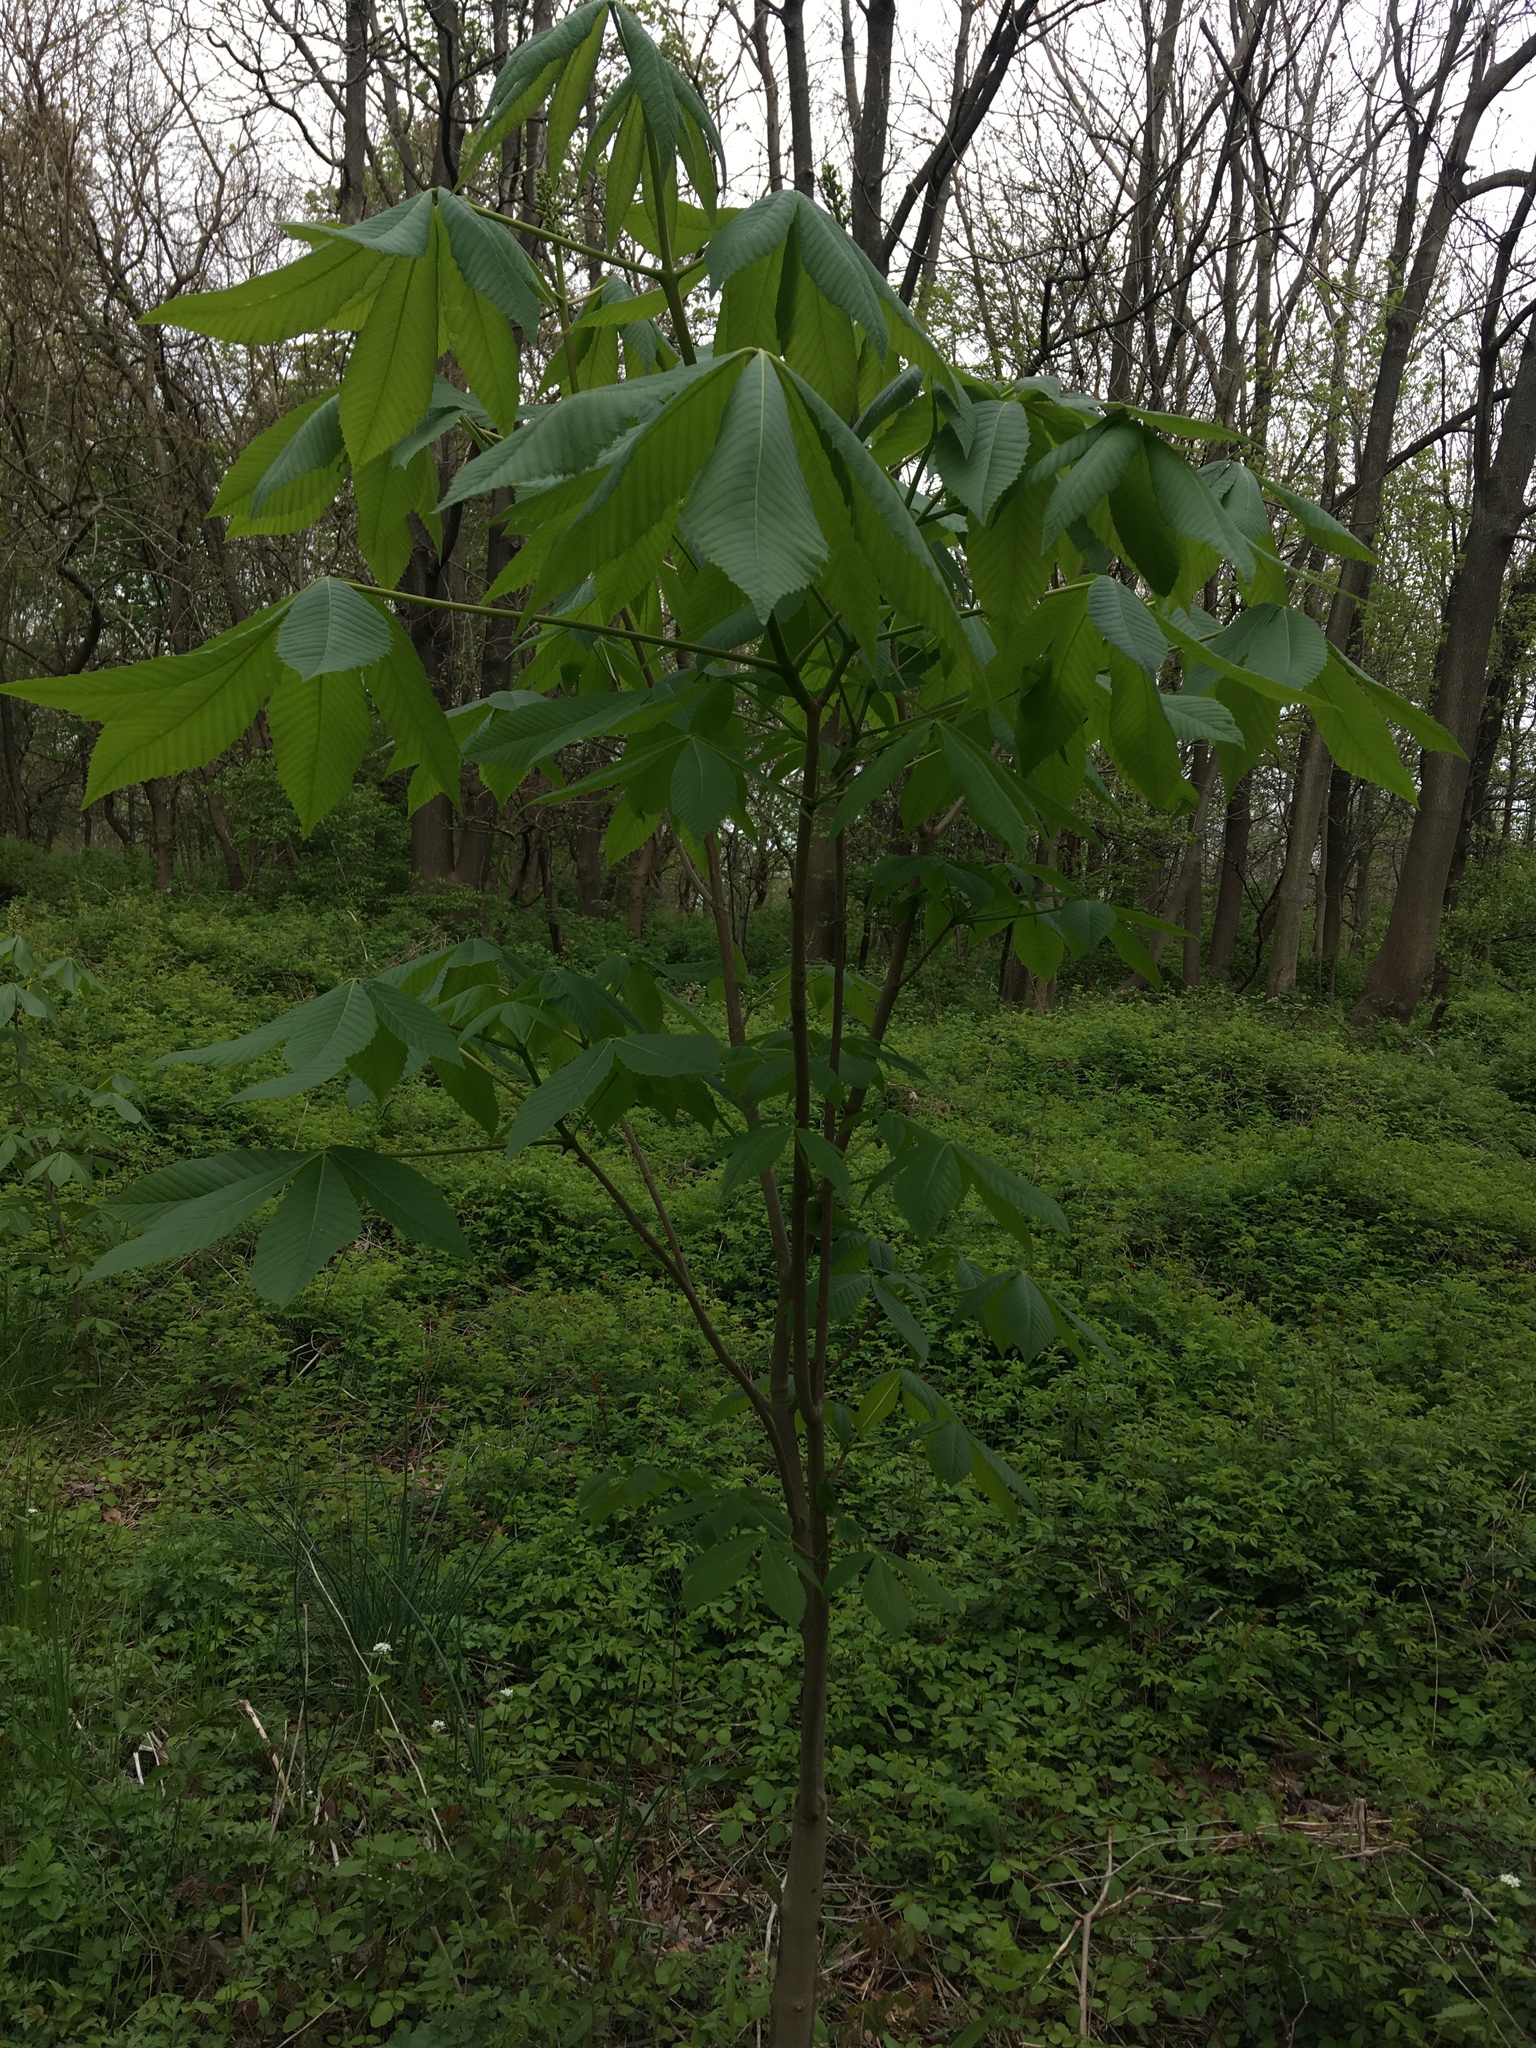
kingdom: Plantae
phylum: Tracheophyta
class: Magnoliopsida
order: Sapindales
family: Sapindaceae
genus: Aesculus
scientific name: Aesculus glabra
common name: Ohio buckeye
